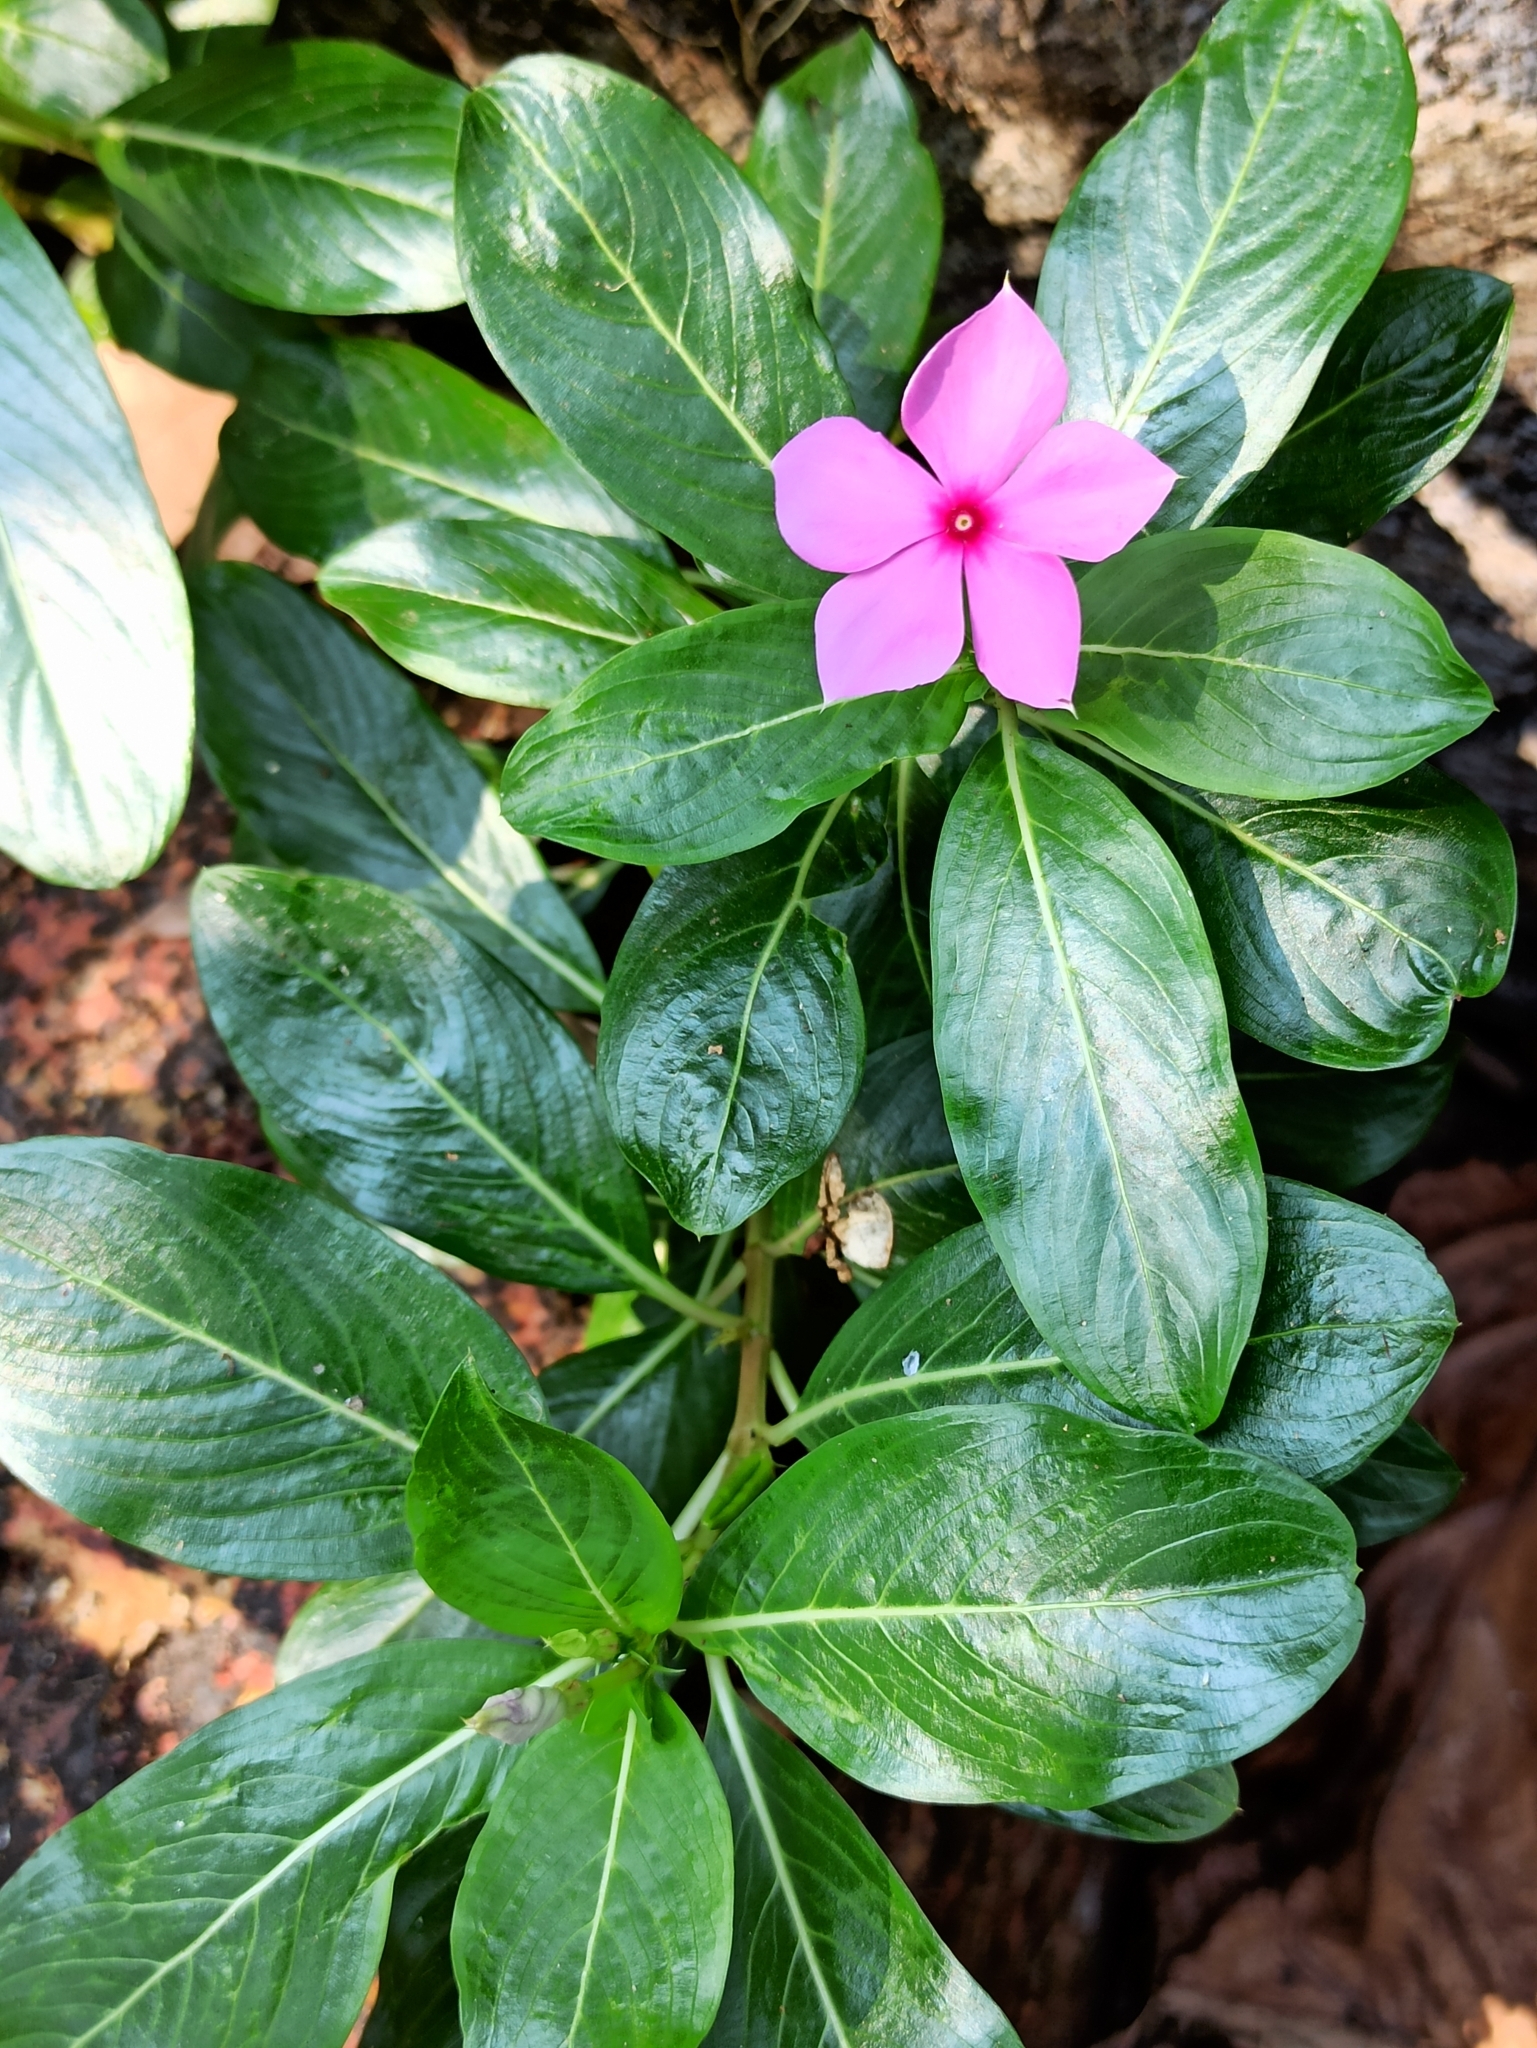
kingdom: Plantae
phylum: Tracheophyta
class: Magnoliopsida
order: Gentianales
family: Apocynaceae
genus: Catharanthus
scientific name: Catharanthus roseus
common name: Madagascar periwinkle
